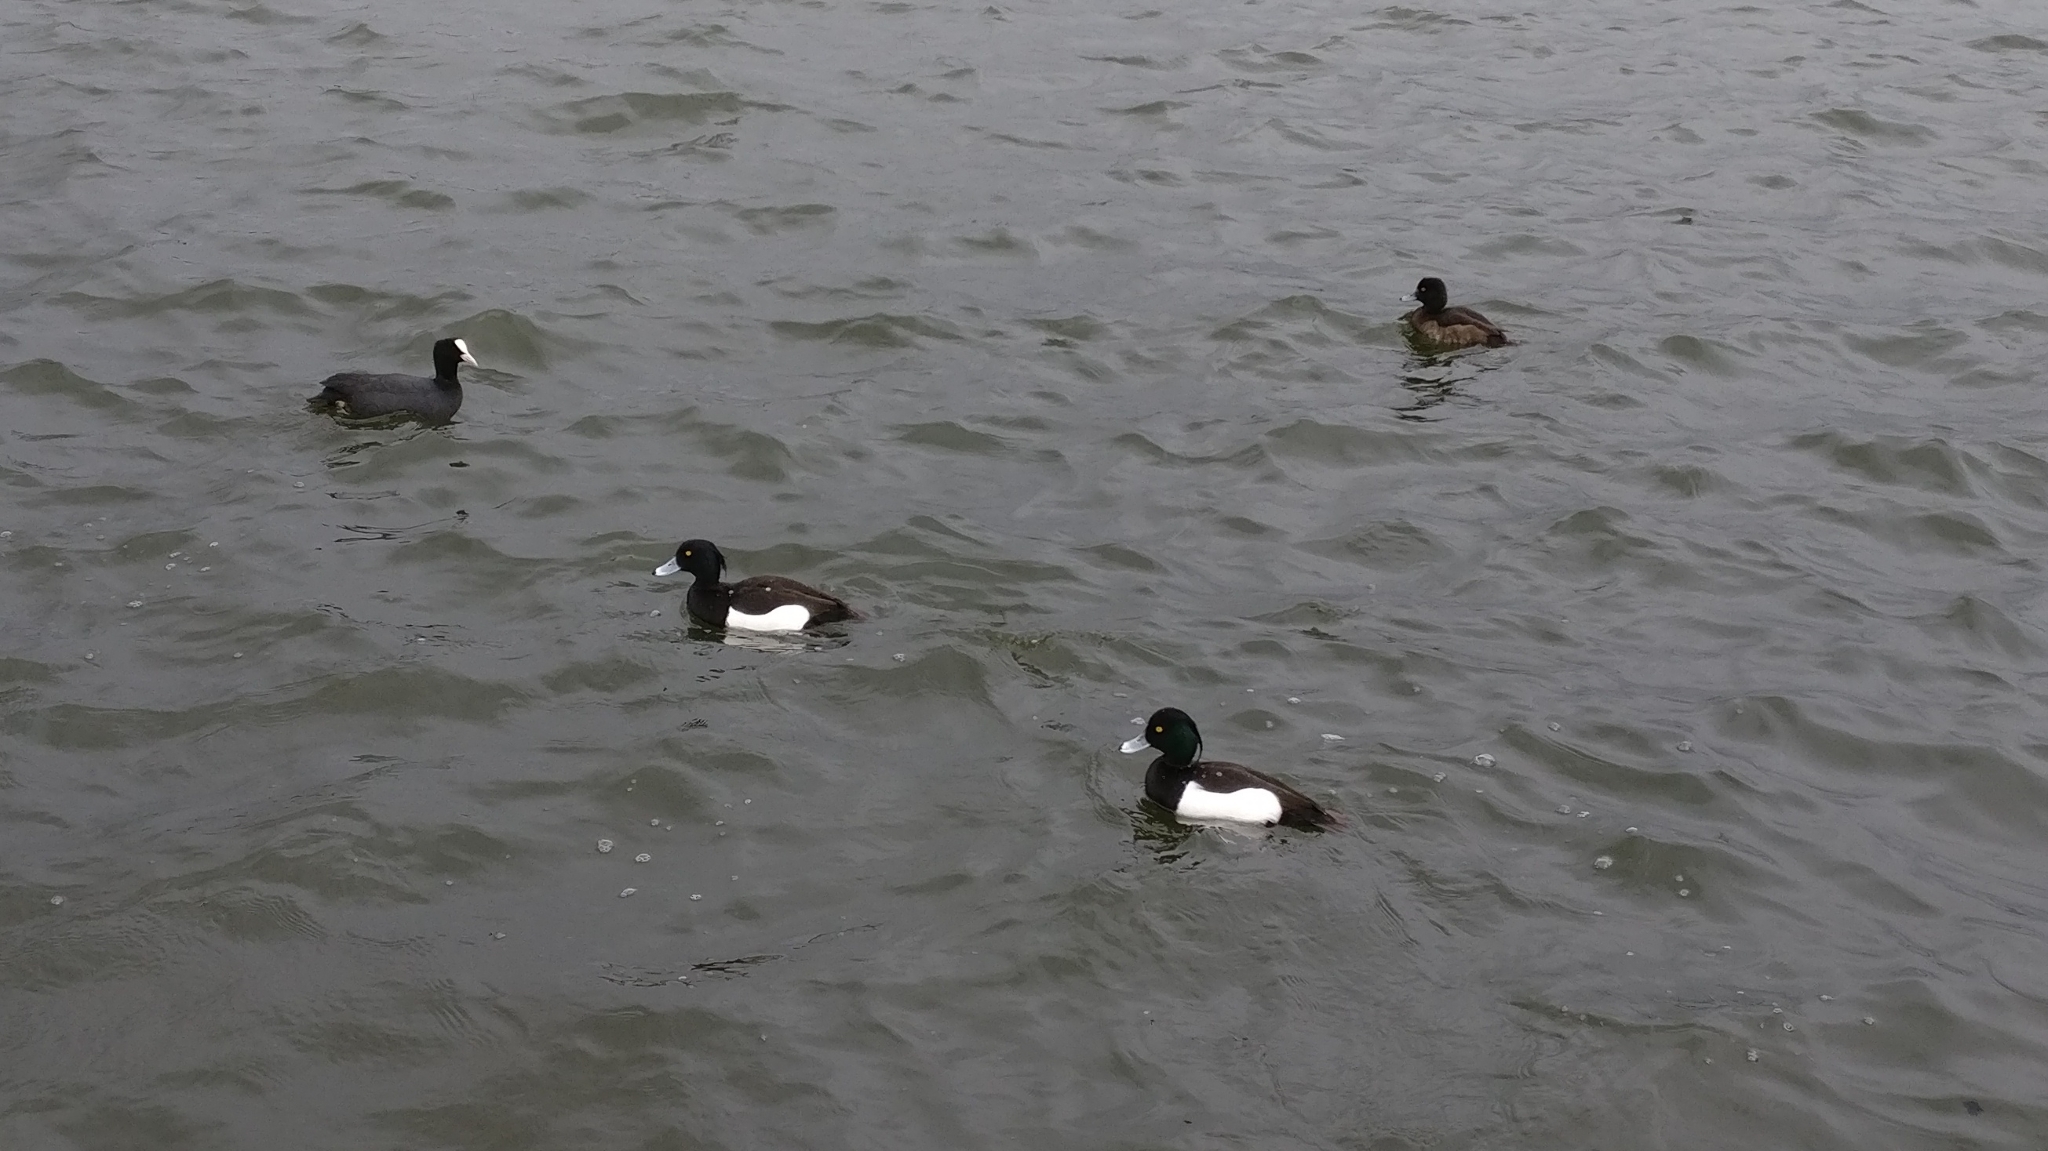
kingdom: Animalia
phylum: Chordata
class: Aves
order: Anseriformes
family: Anatidae
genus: Aythya
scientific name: Aythya fuligula
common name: Tufted duck
